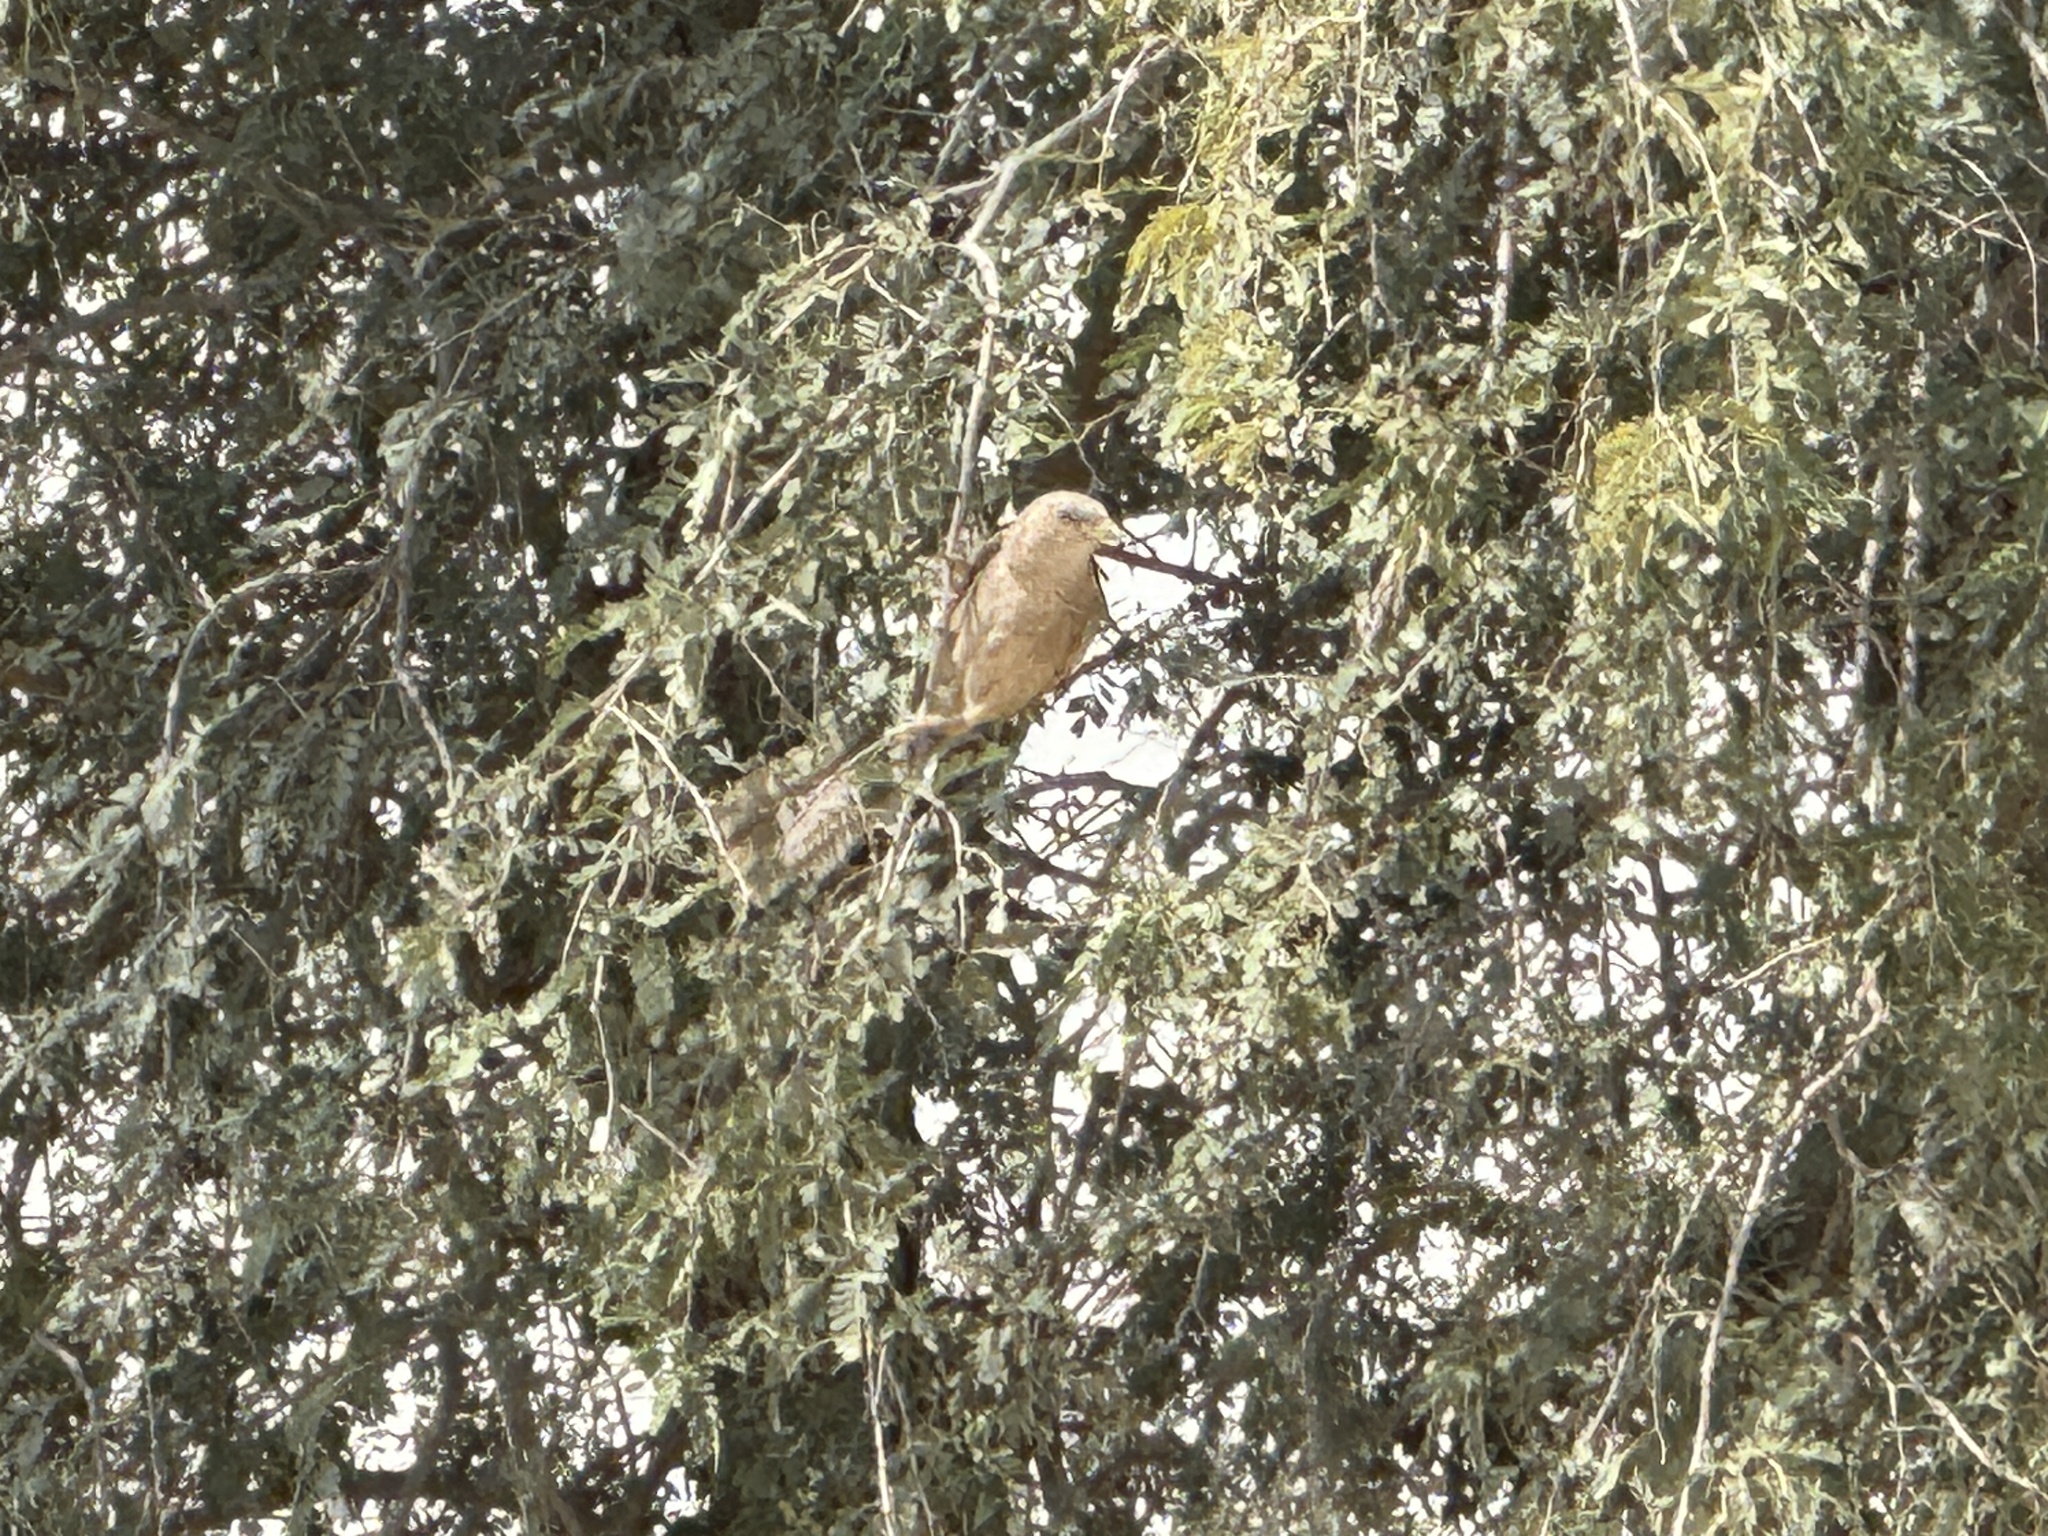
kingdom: Animalia
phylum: Chordata
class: Aves
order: Passeriformes
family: Leiothrichidae
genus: Turdoides
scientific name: Turdoides squamiceps
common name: Arabian babbler
